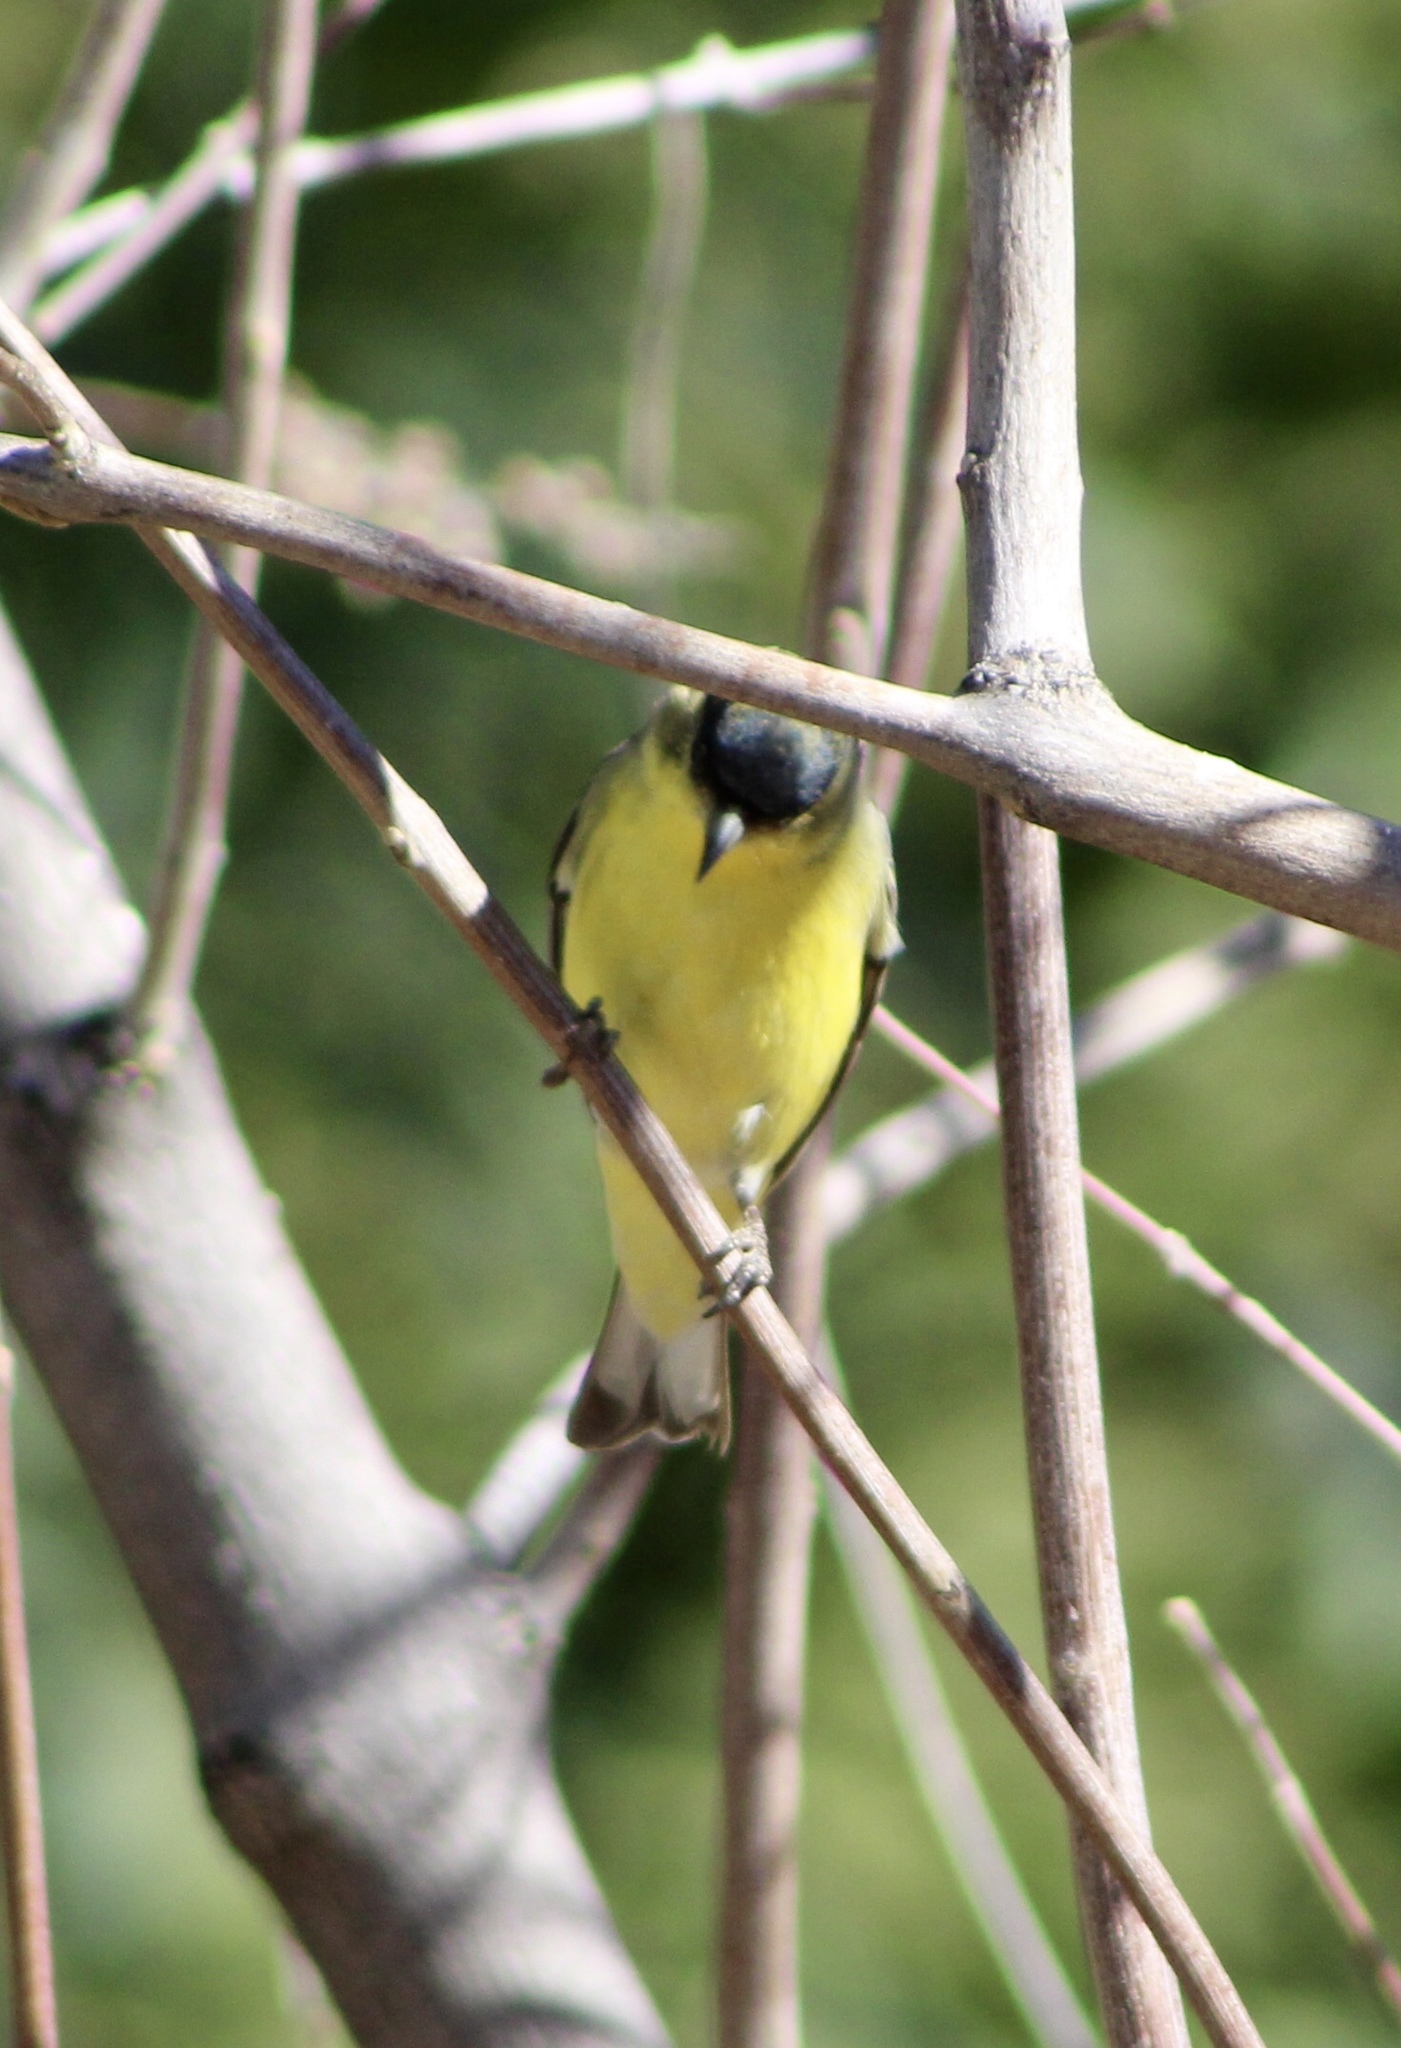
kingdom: Animalia
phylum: Chordata
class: Aves
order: Passeriformes
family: Fringillidae
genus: Spinus
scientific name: Spinus psaltria
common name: Lesser goldfinch
